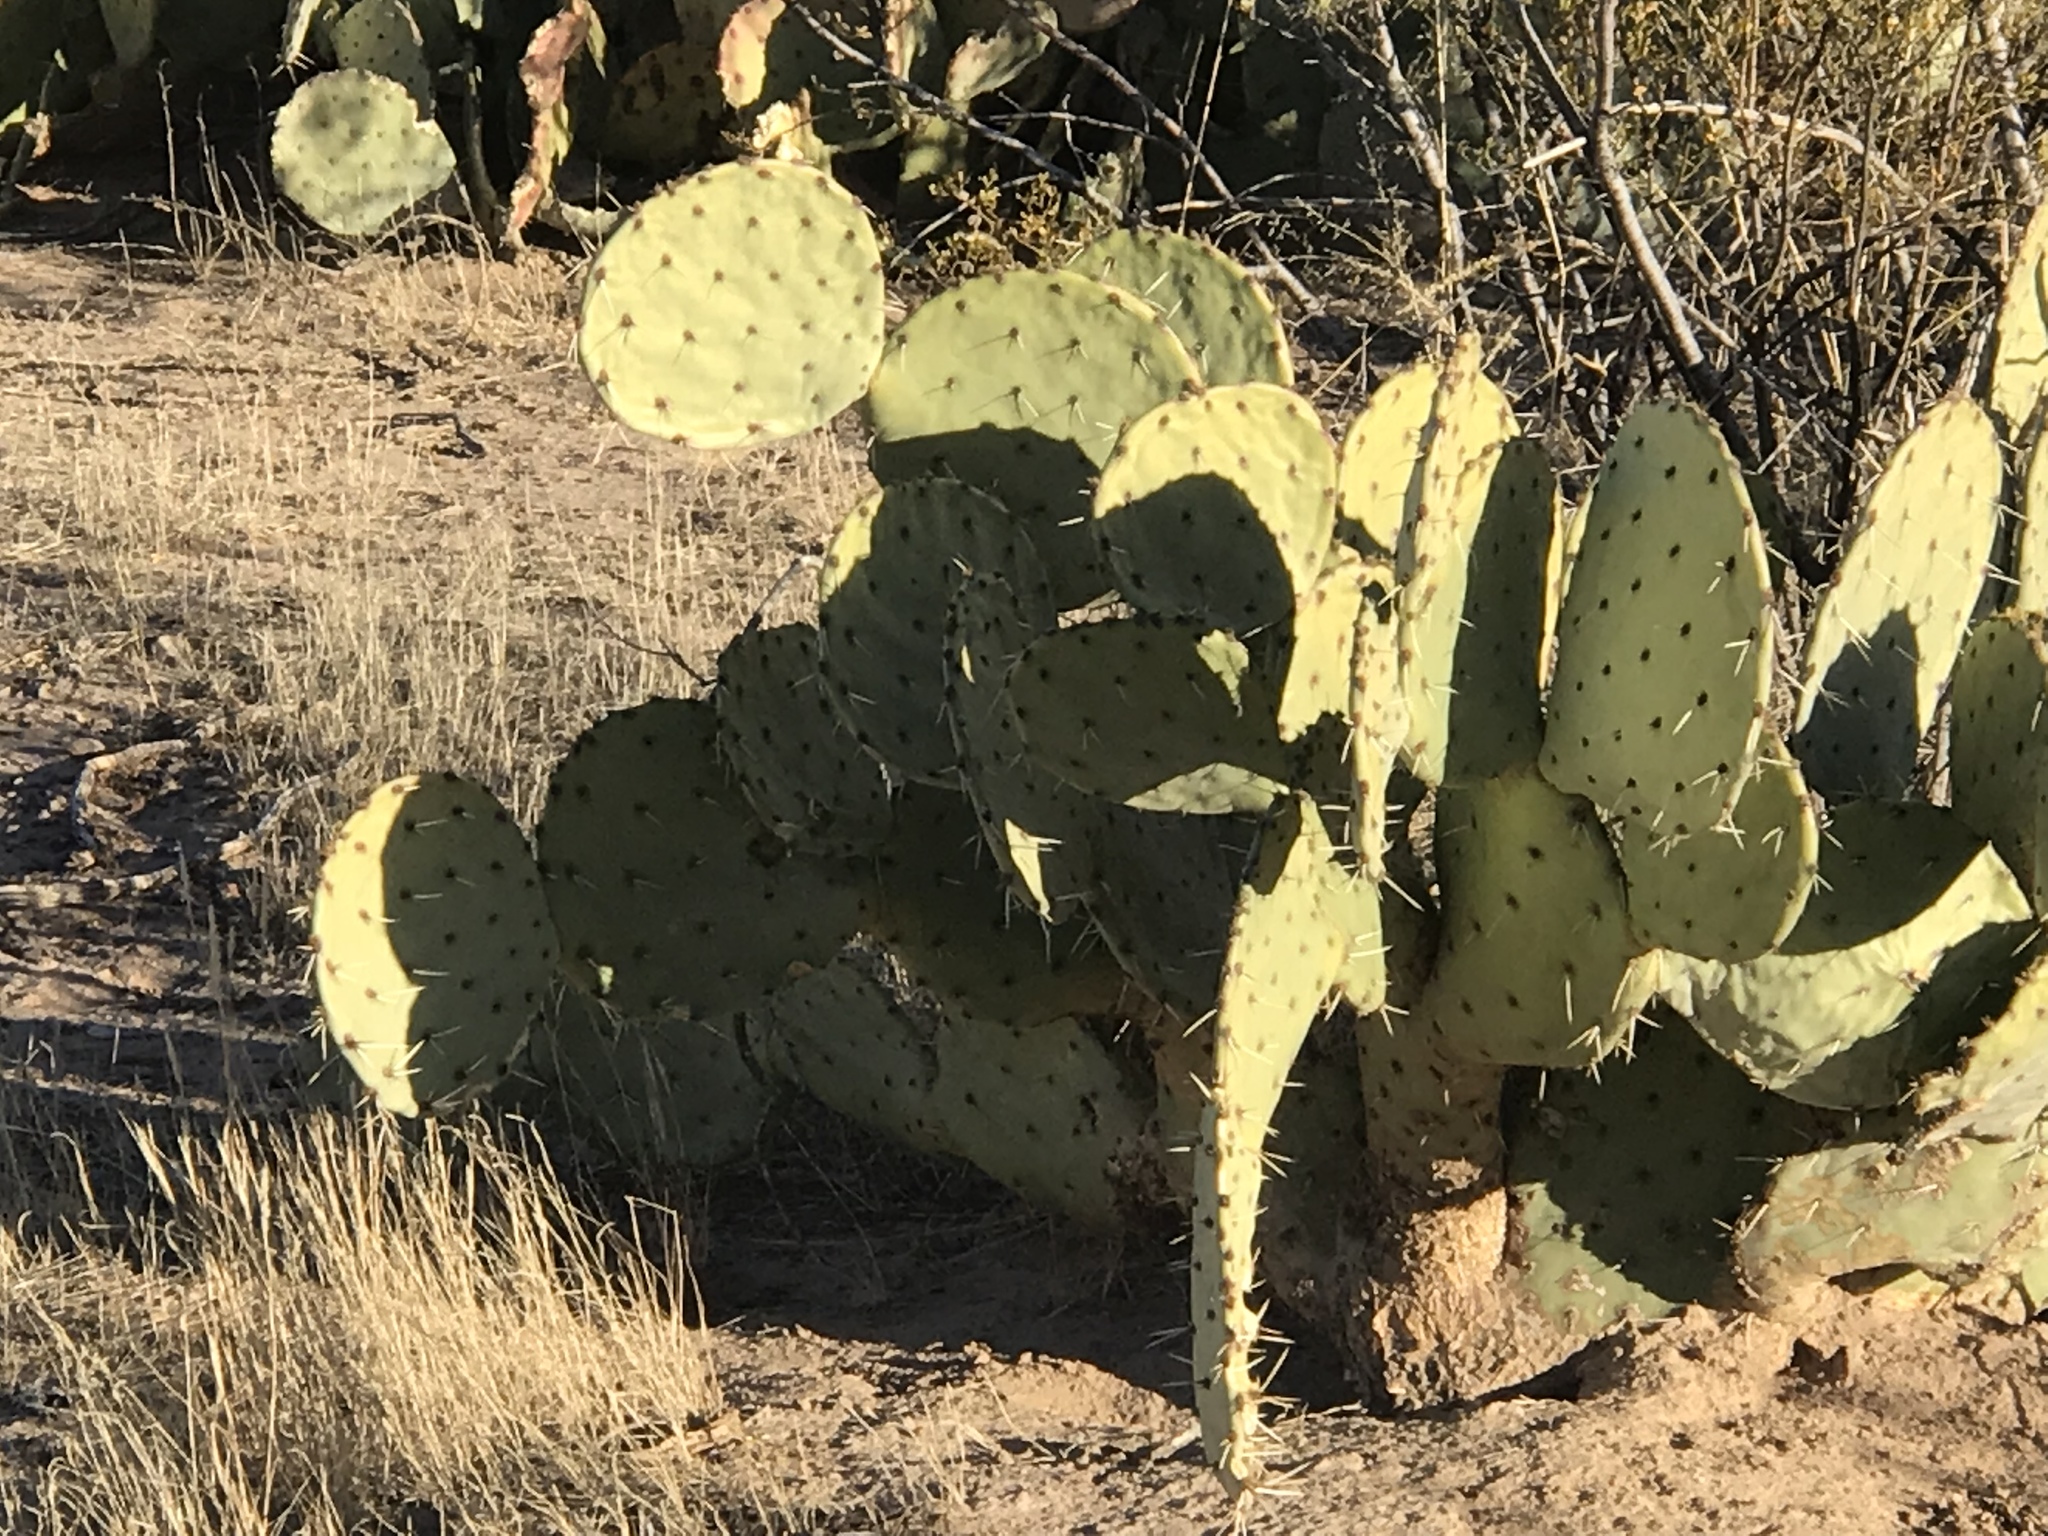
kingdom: Plantae
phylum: Tracheophyta
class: Magnoliopsida
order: Caryophyllales
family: Cactaceae
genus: Opuntia
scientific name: Opuntia engelmannii
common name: Cactus-apple
